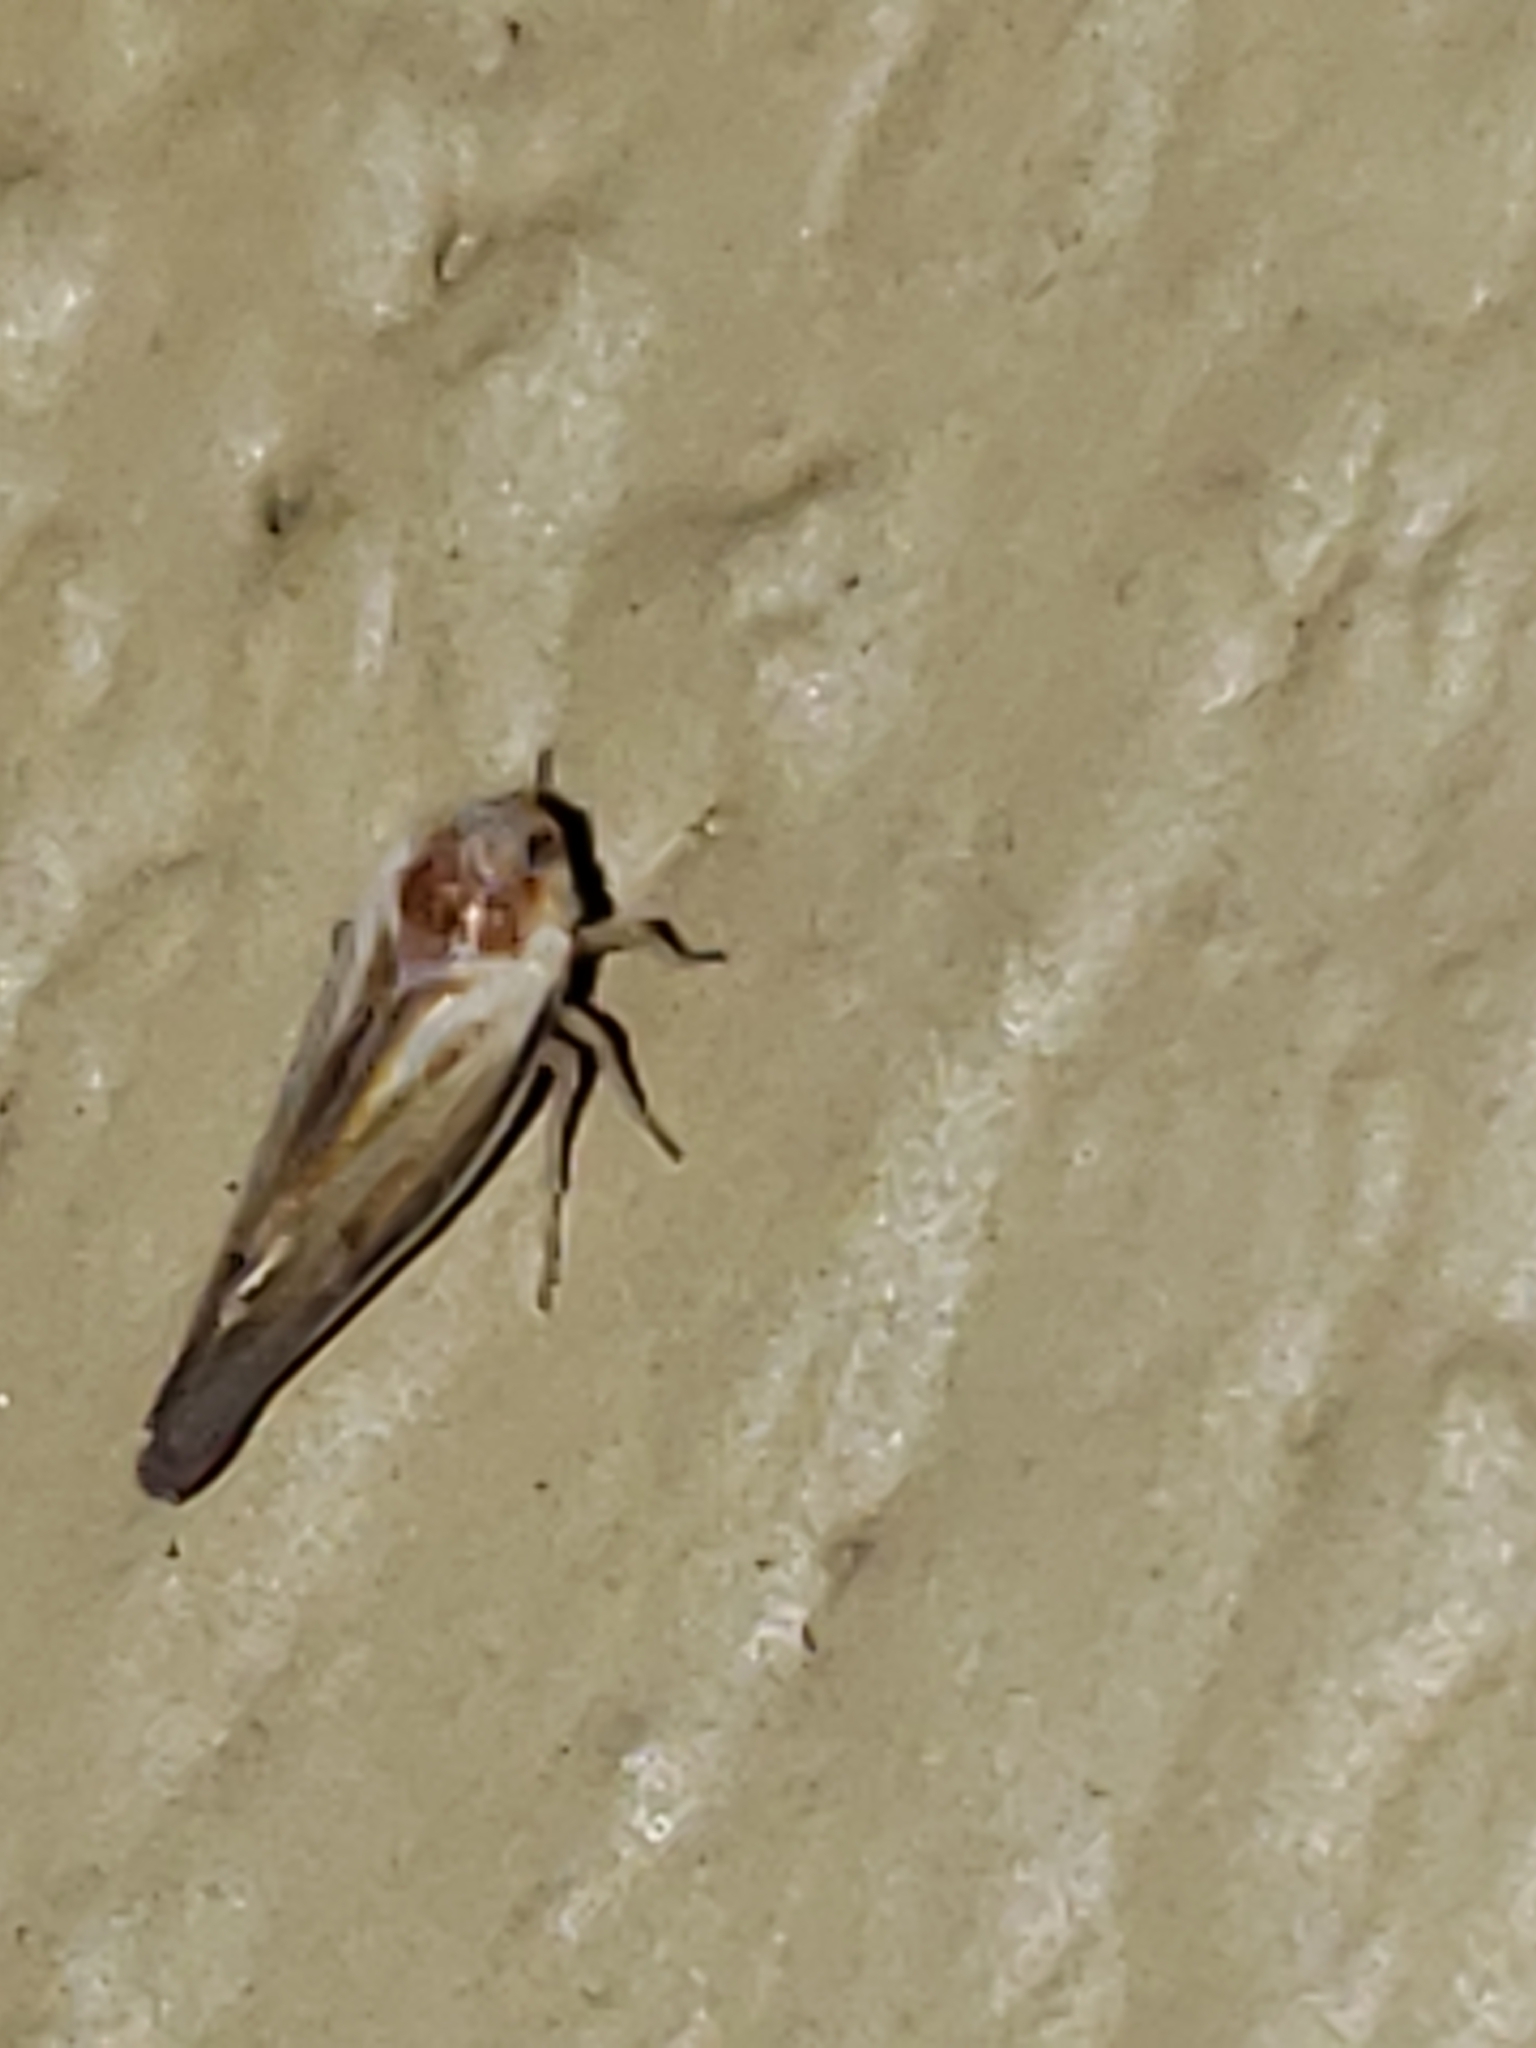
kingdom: Animalia
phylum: Arthropoda
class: Insecta
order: Hemiptera
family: Derbidae
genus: Omolicna
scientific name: Omolicna uhleri
